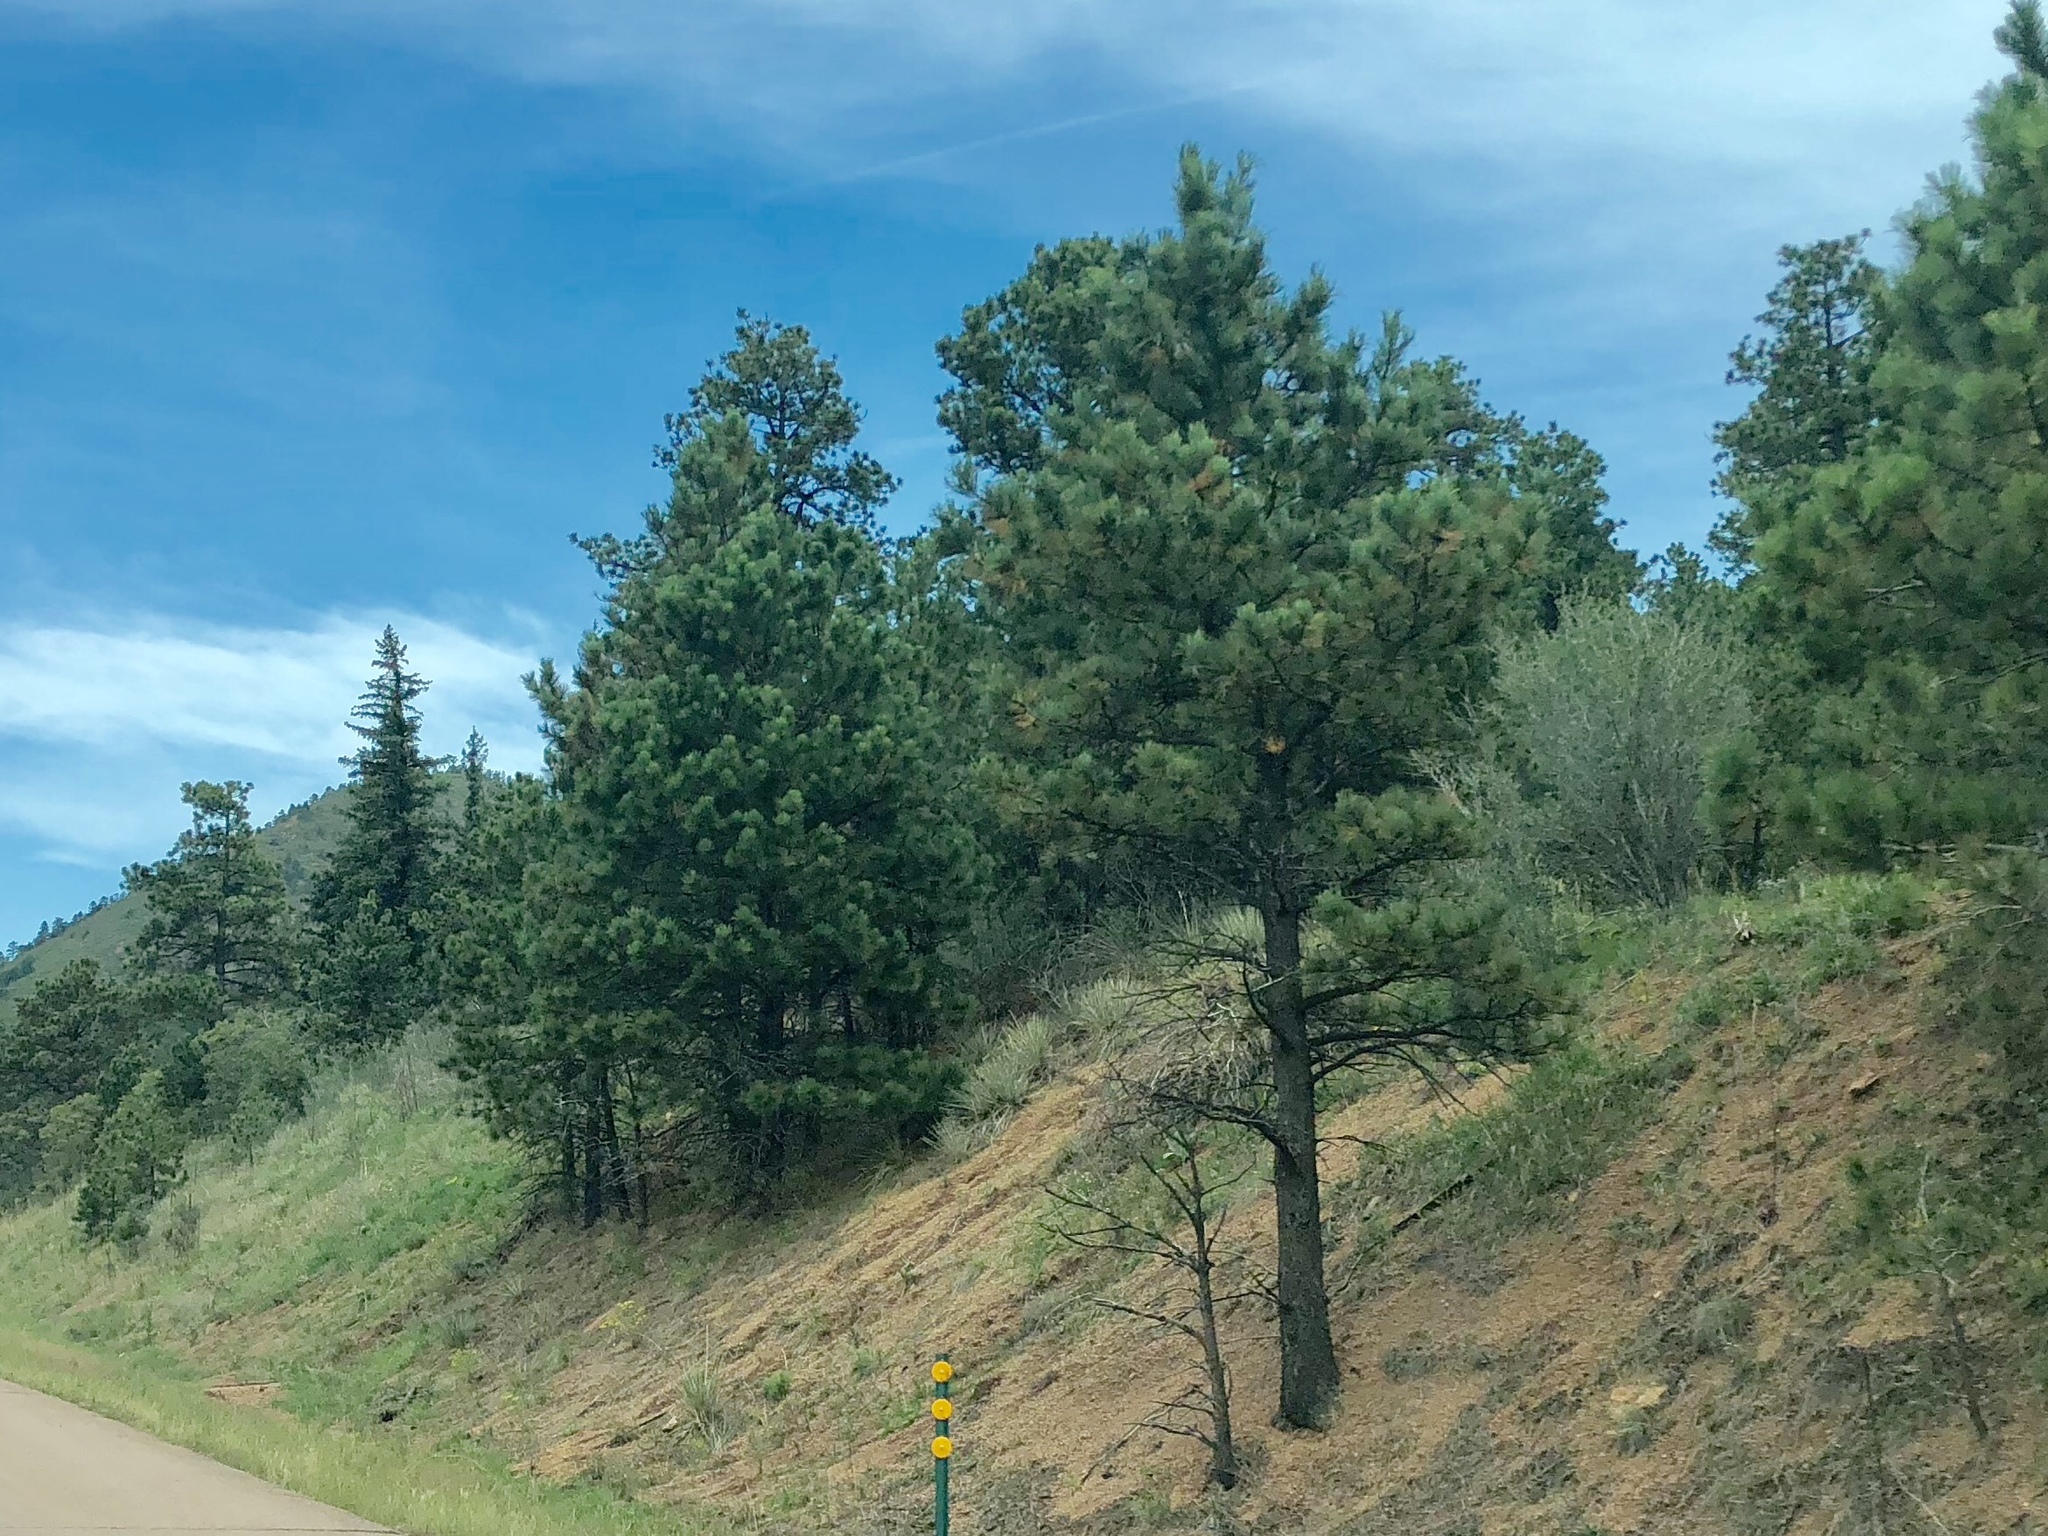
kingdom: Plantae
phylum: Tracheophyta
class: Pinopsida
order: Pinales
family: Pinaceae
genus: Pinus
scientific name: Pinus ponderosa
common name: Western yellow-pine
